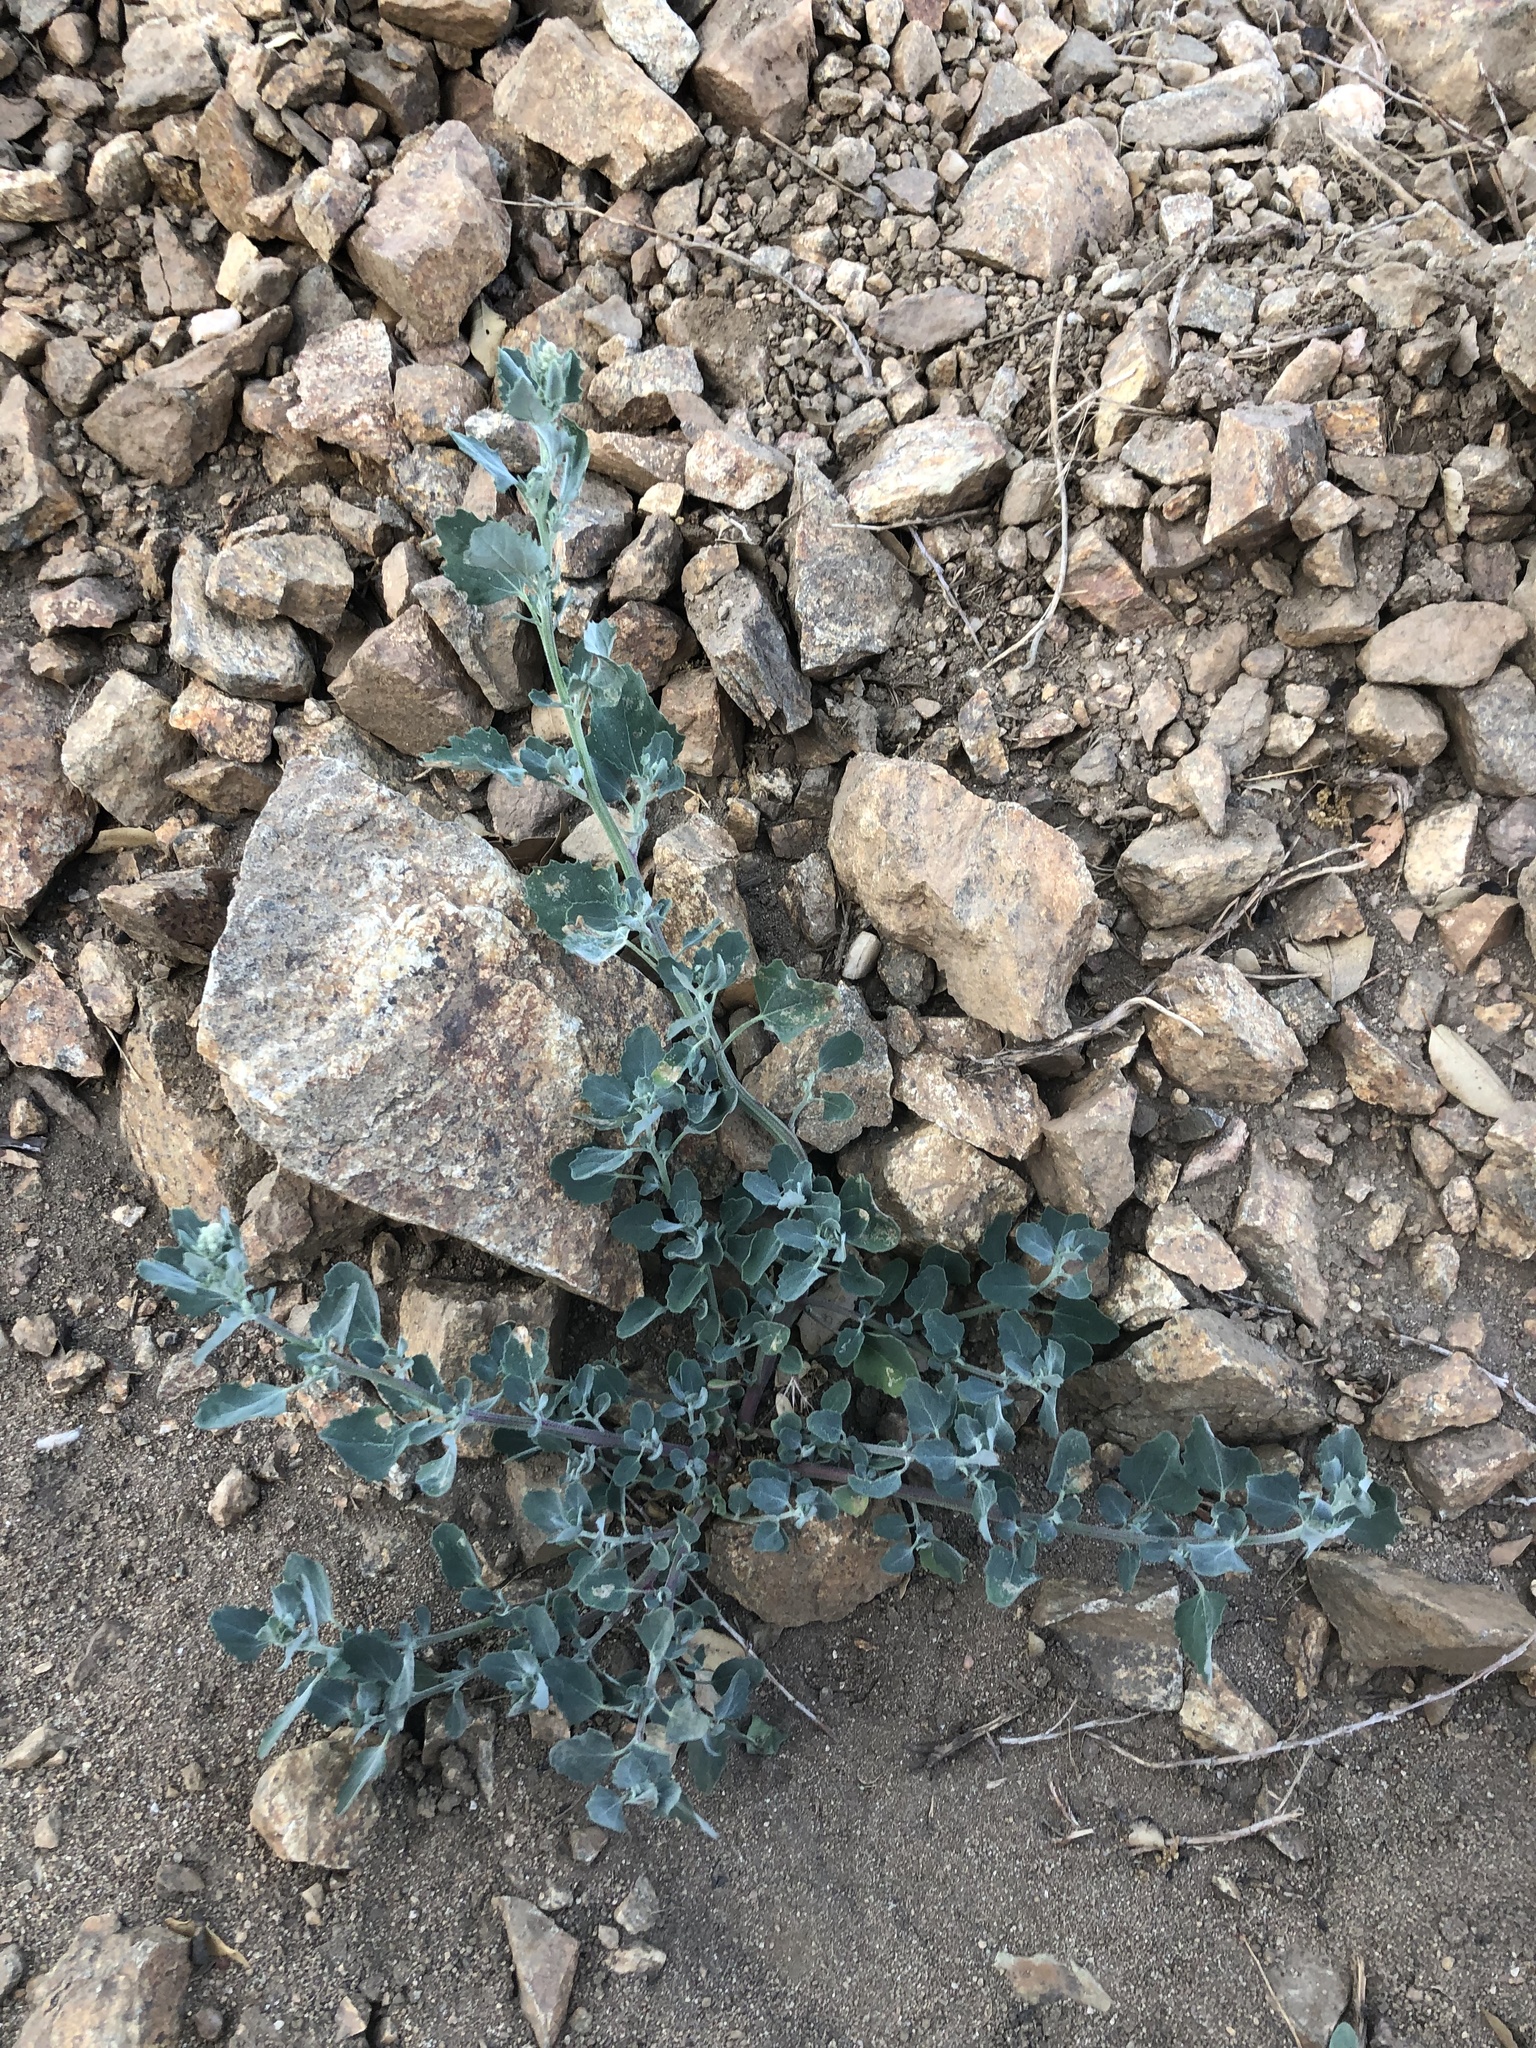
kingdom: Plantae
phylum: Tracheophyta
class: Magnoliopsida
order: Caryophyllales
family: Amaranthaceae
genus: Chenopodium
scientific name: Chenopodium album
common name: Fat-hen
